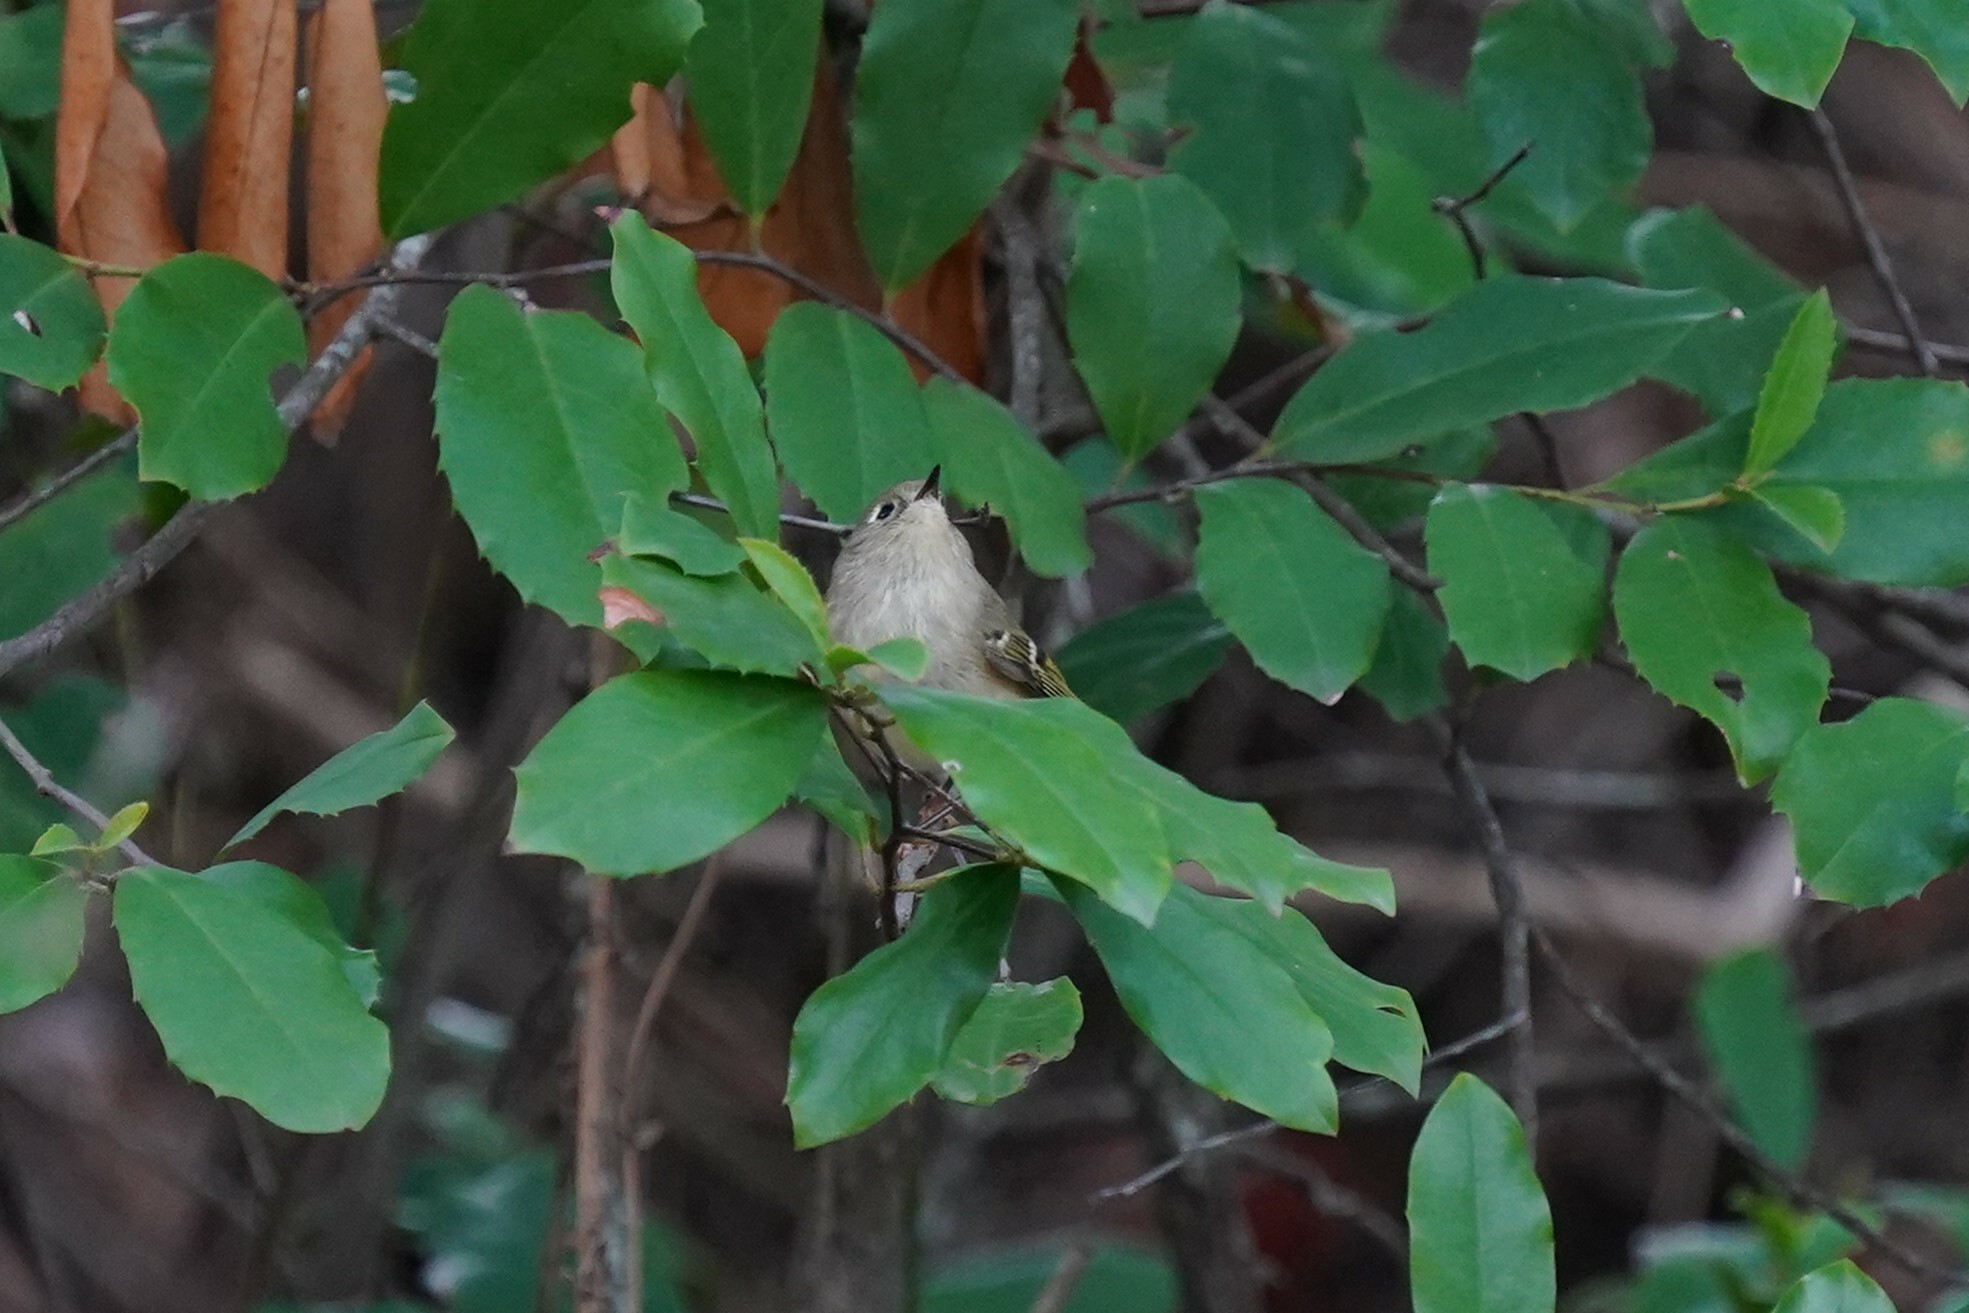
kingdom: Animalia
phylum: Chordata
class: Aves
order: Passeriformes
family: Regulidae
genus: Regulus
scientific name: Regulus calendula
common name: Ruby-crowned kinglet
